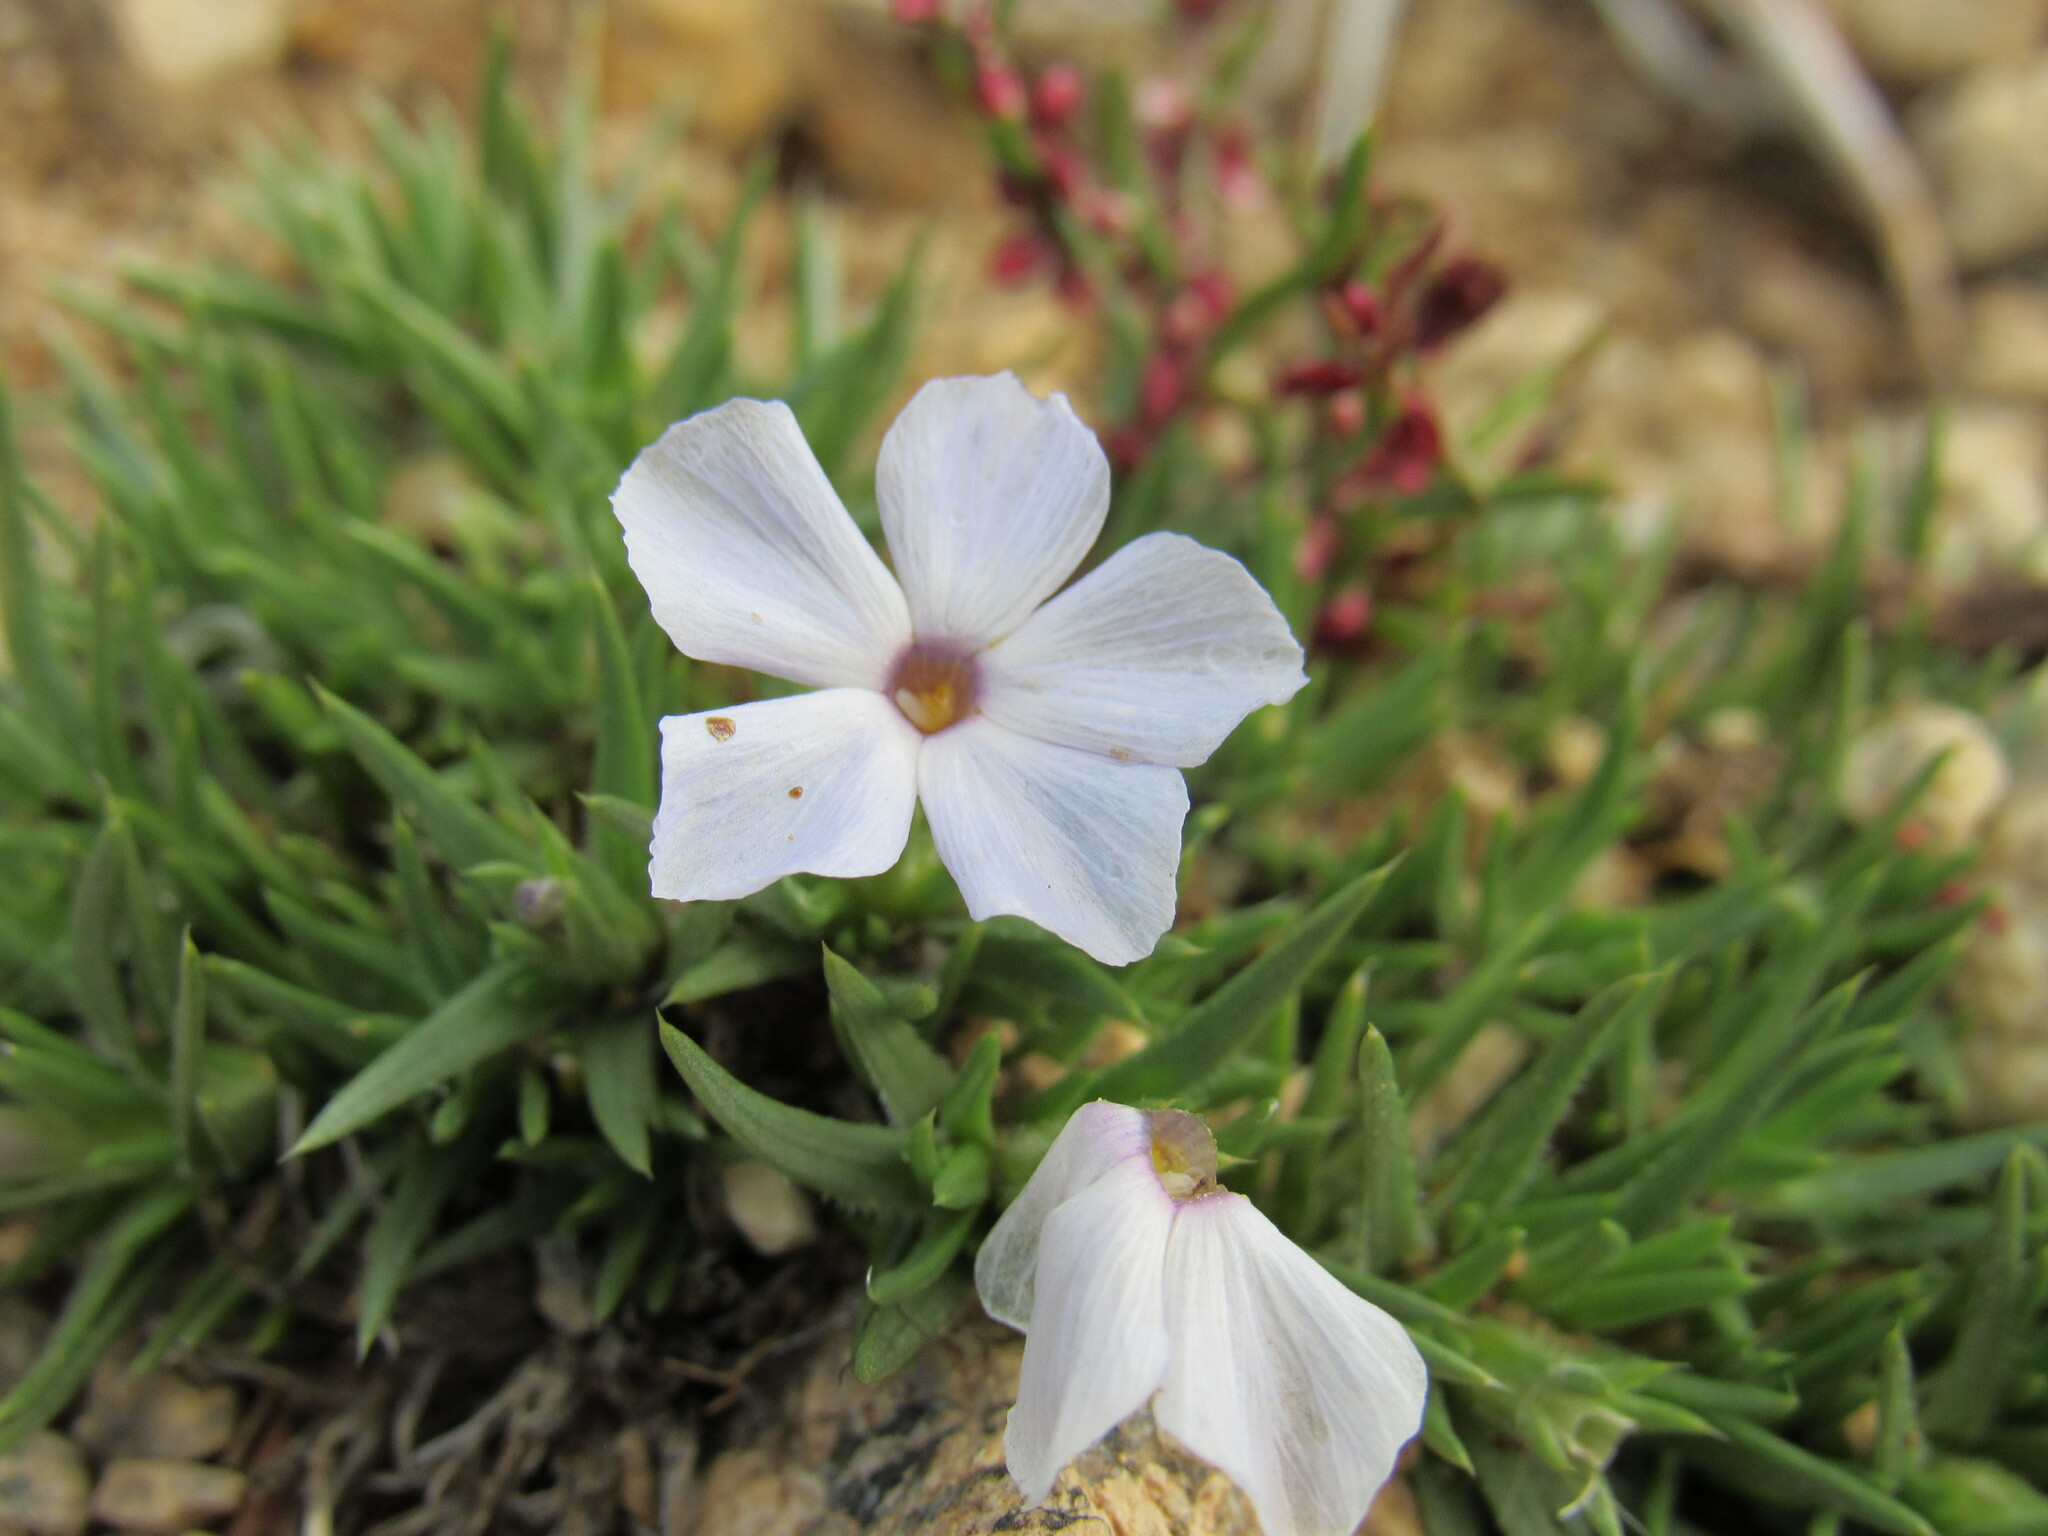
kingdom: Plantae
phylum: Tracheophyta
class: Magnoliopsida
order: Ericales
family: Polemoniaceae
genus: Phlox
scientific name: Phlox condensata
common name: Compact phlox
